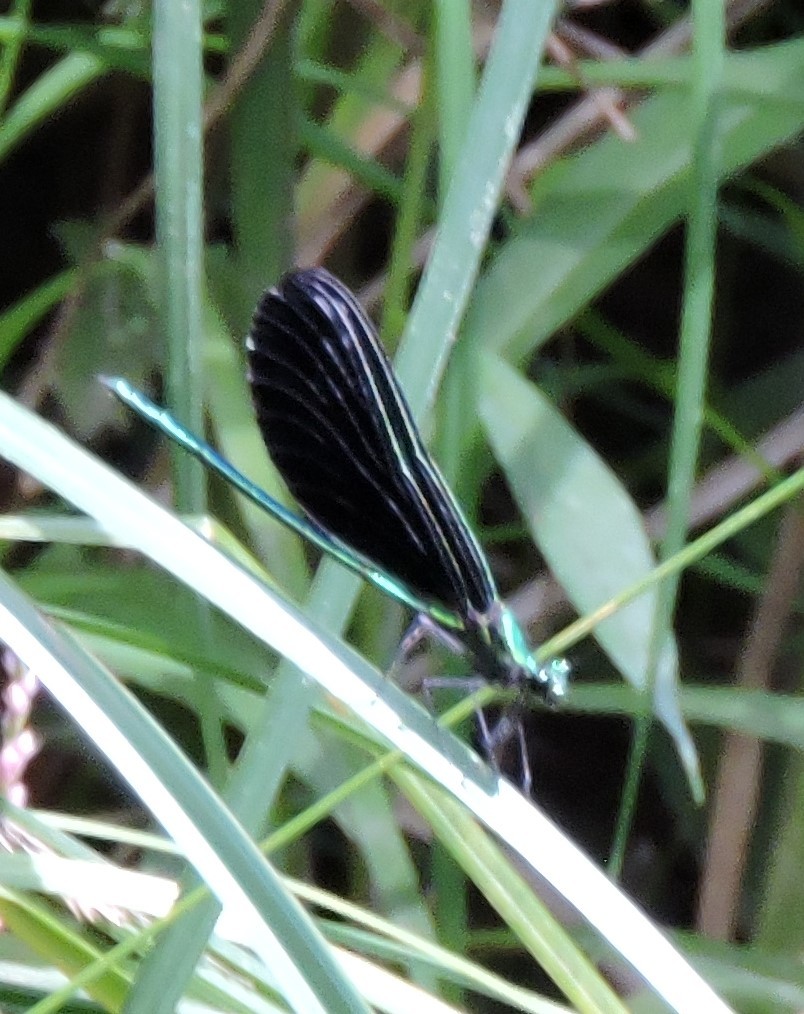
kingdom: Animalia
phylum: Arthropoda
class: Insecta
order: Odonata
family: Calopterygidae
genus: Calopteryx
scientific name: Calopteryx maculata
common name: Ebony jewelwing
